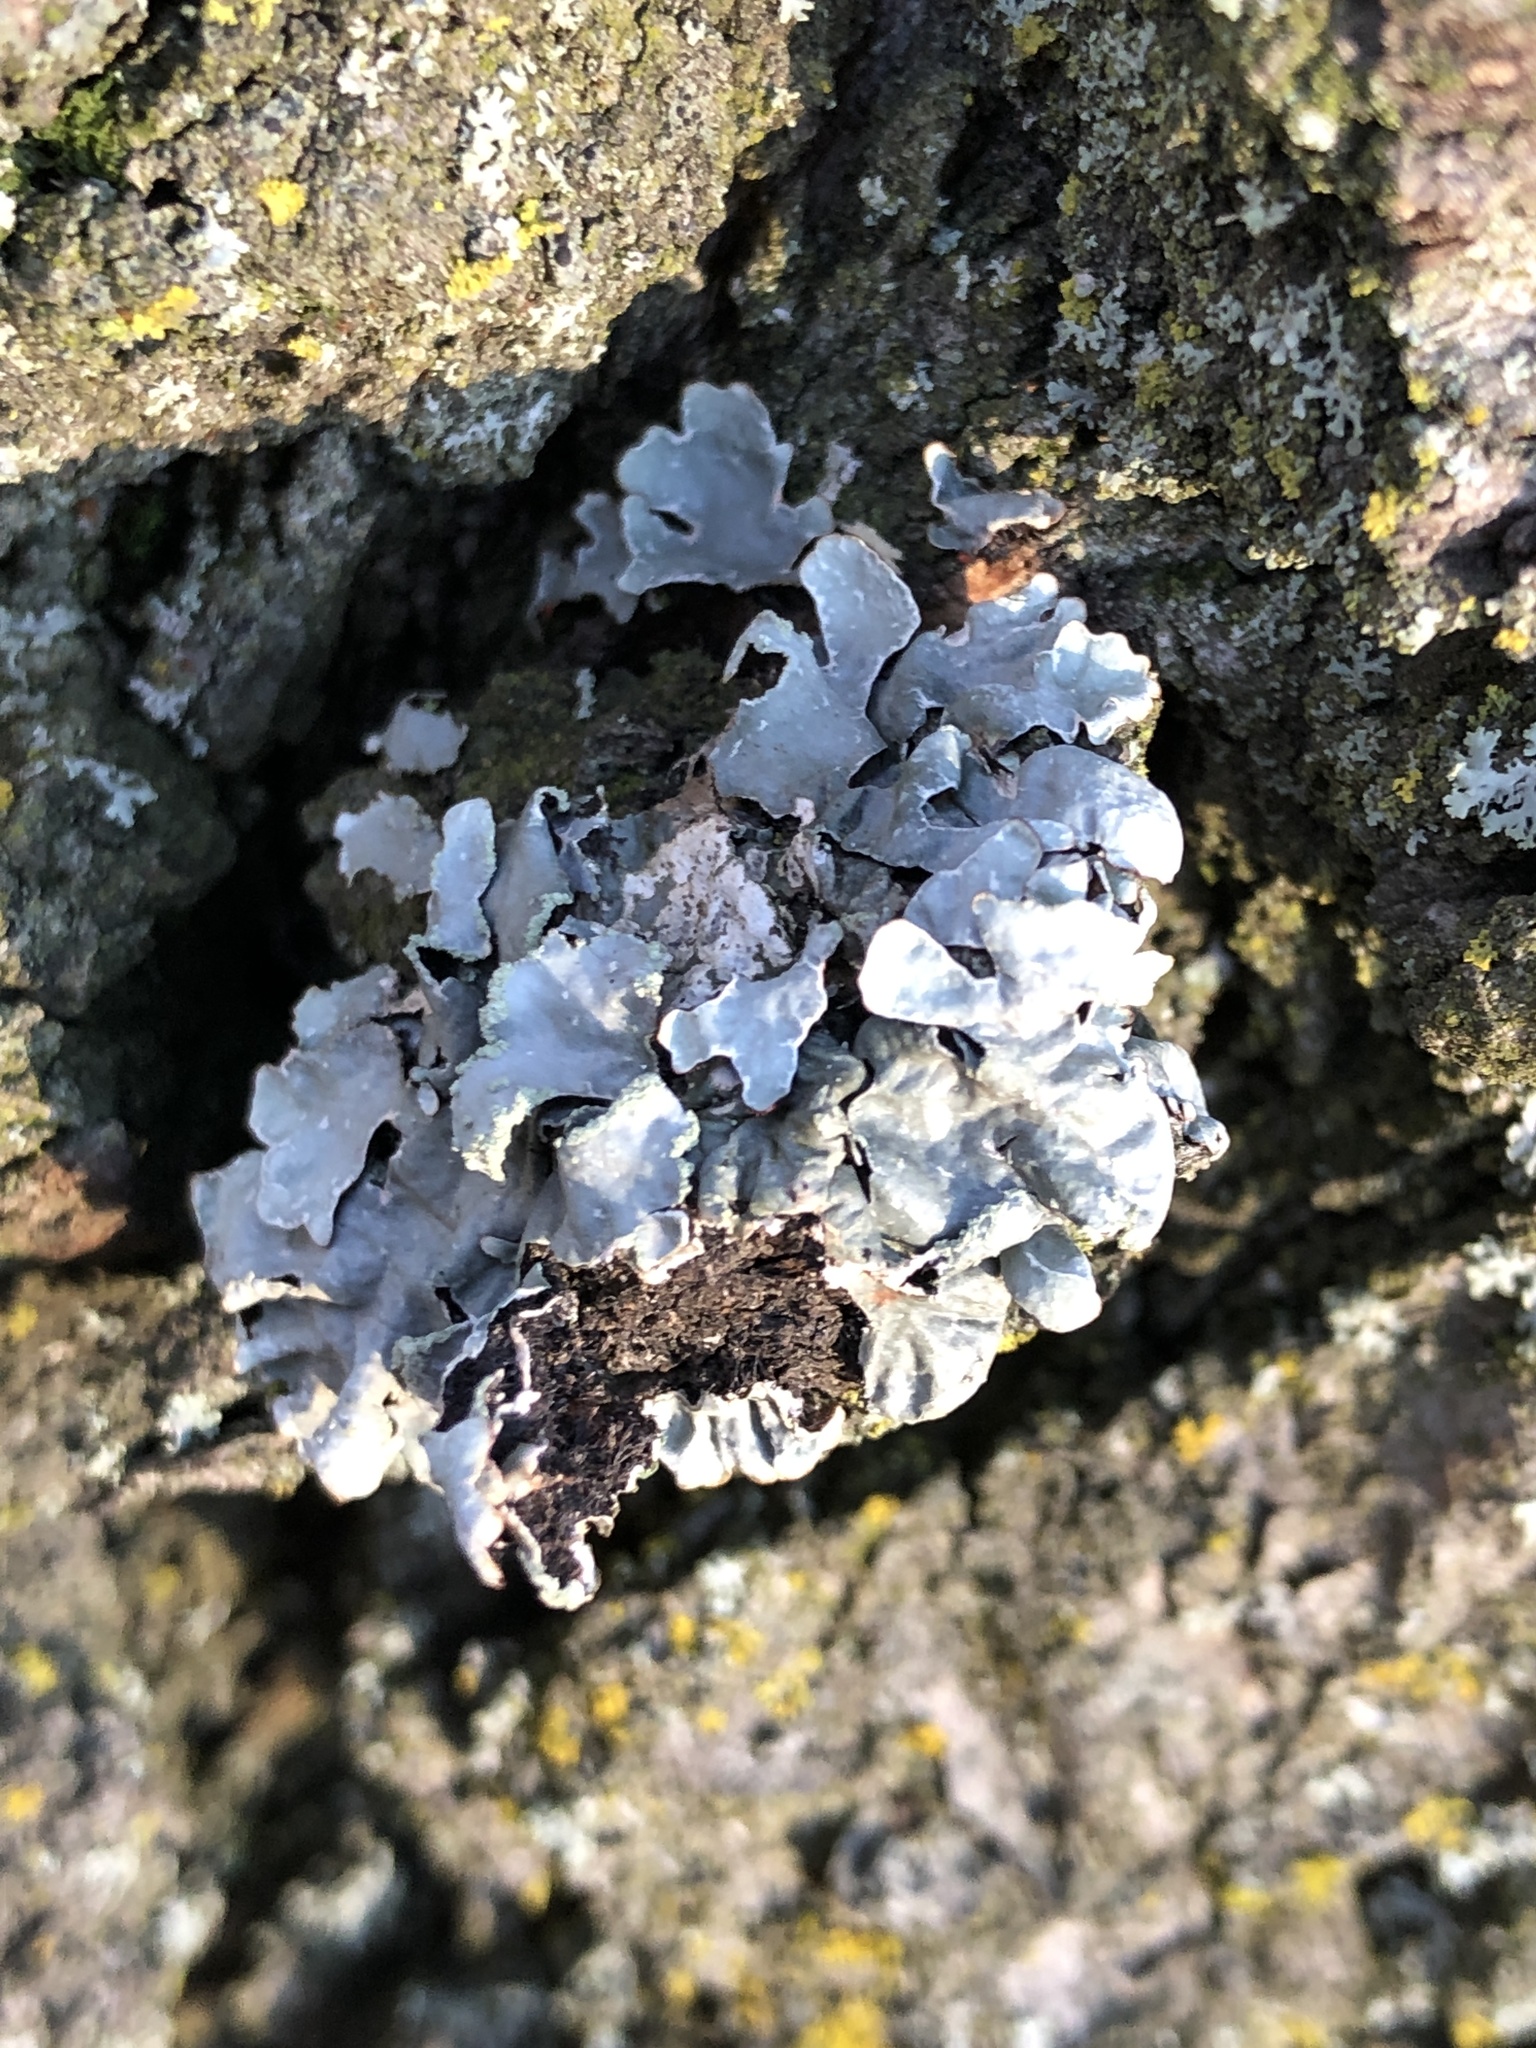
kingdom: Fungi
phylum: Ascomycota
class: Lecanoromycetes
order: Lecanorales
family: Parmeliaceae
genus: Parmelia
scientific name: Parmelia sulcata
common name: Netted shield lichen
